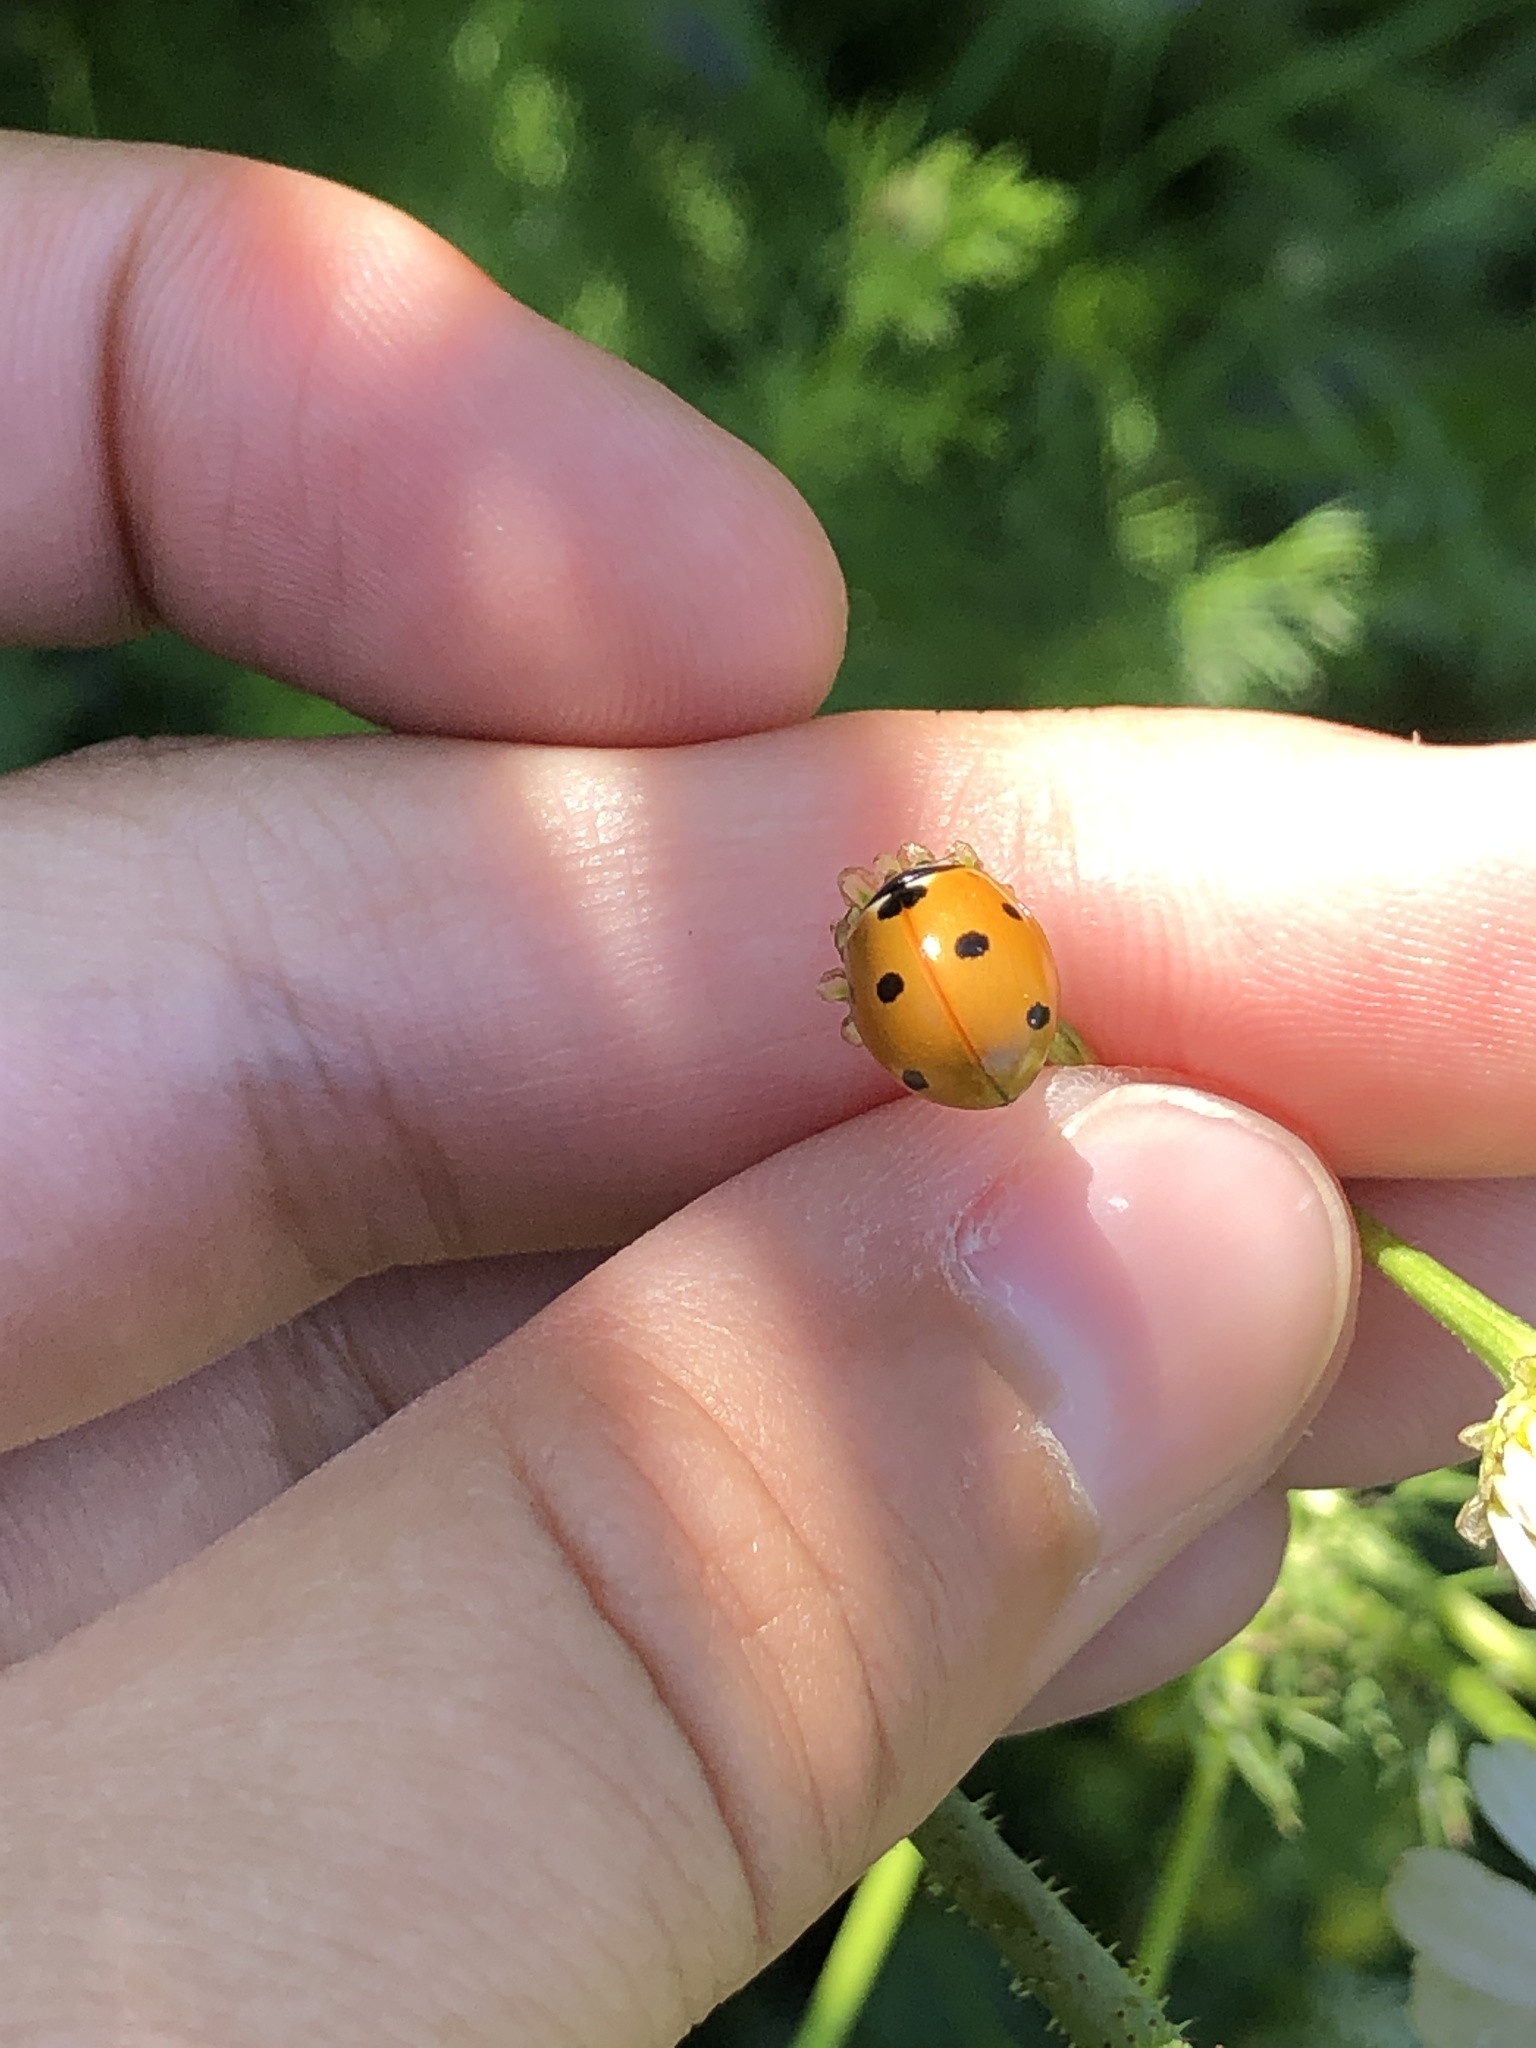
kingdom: Animalia
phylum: Arthropoda
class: Insecta
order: Coleoptera
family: Coccinellidae
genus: Coccinella
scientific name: Coccinella septempunctata
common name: Sevenspotted lady beetle
